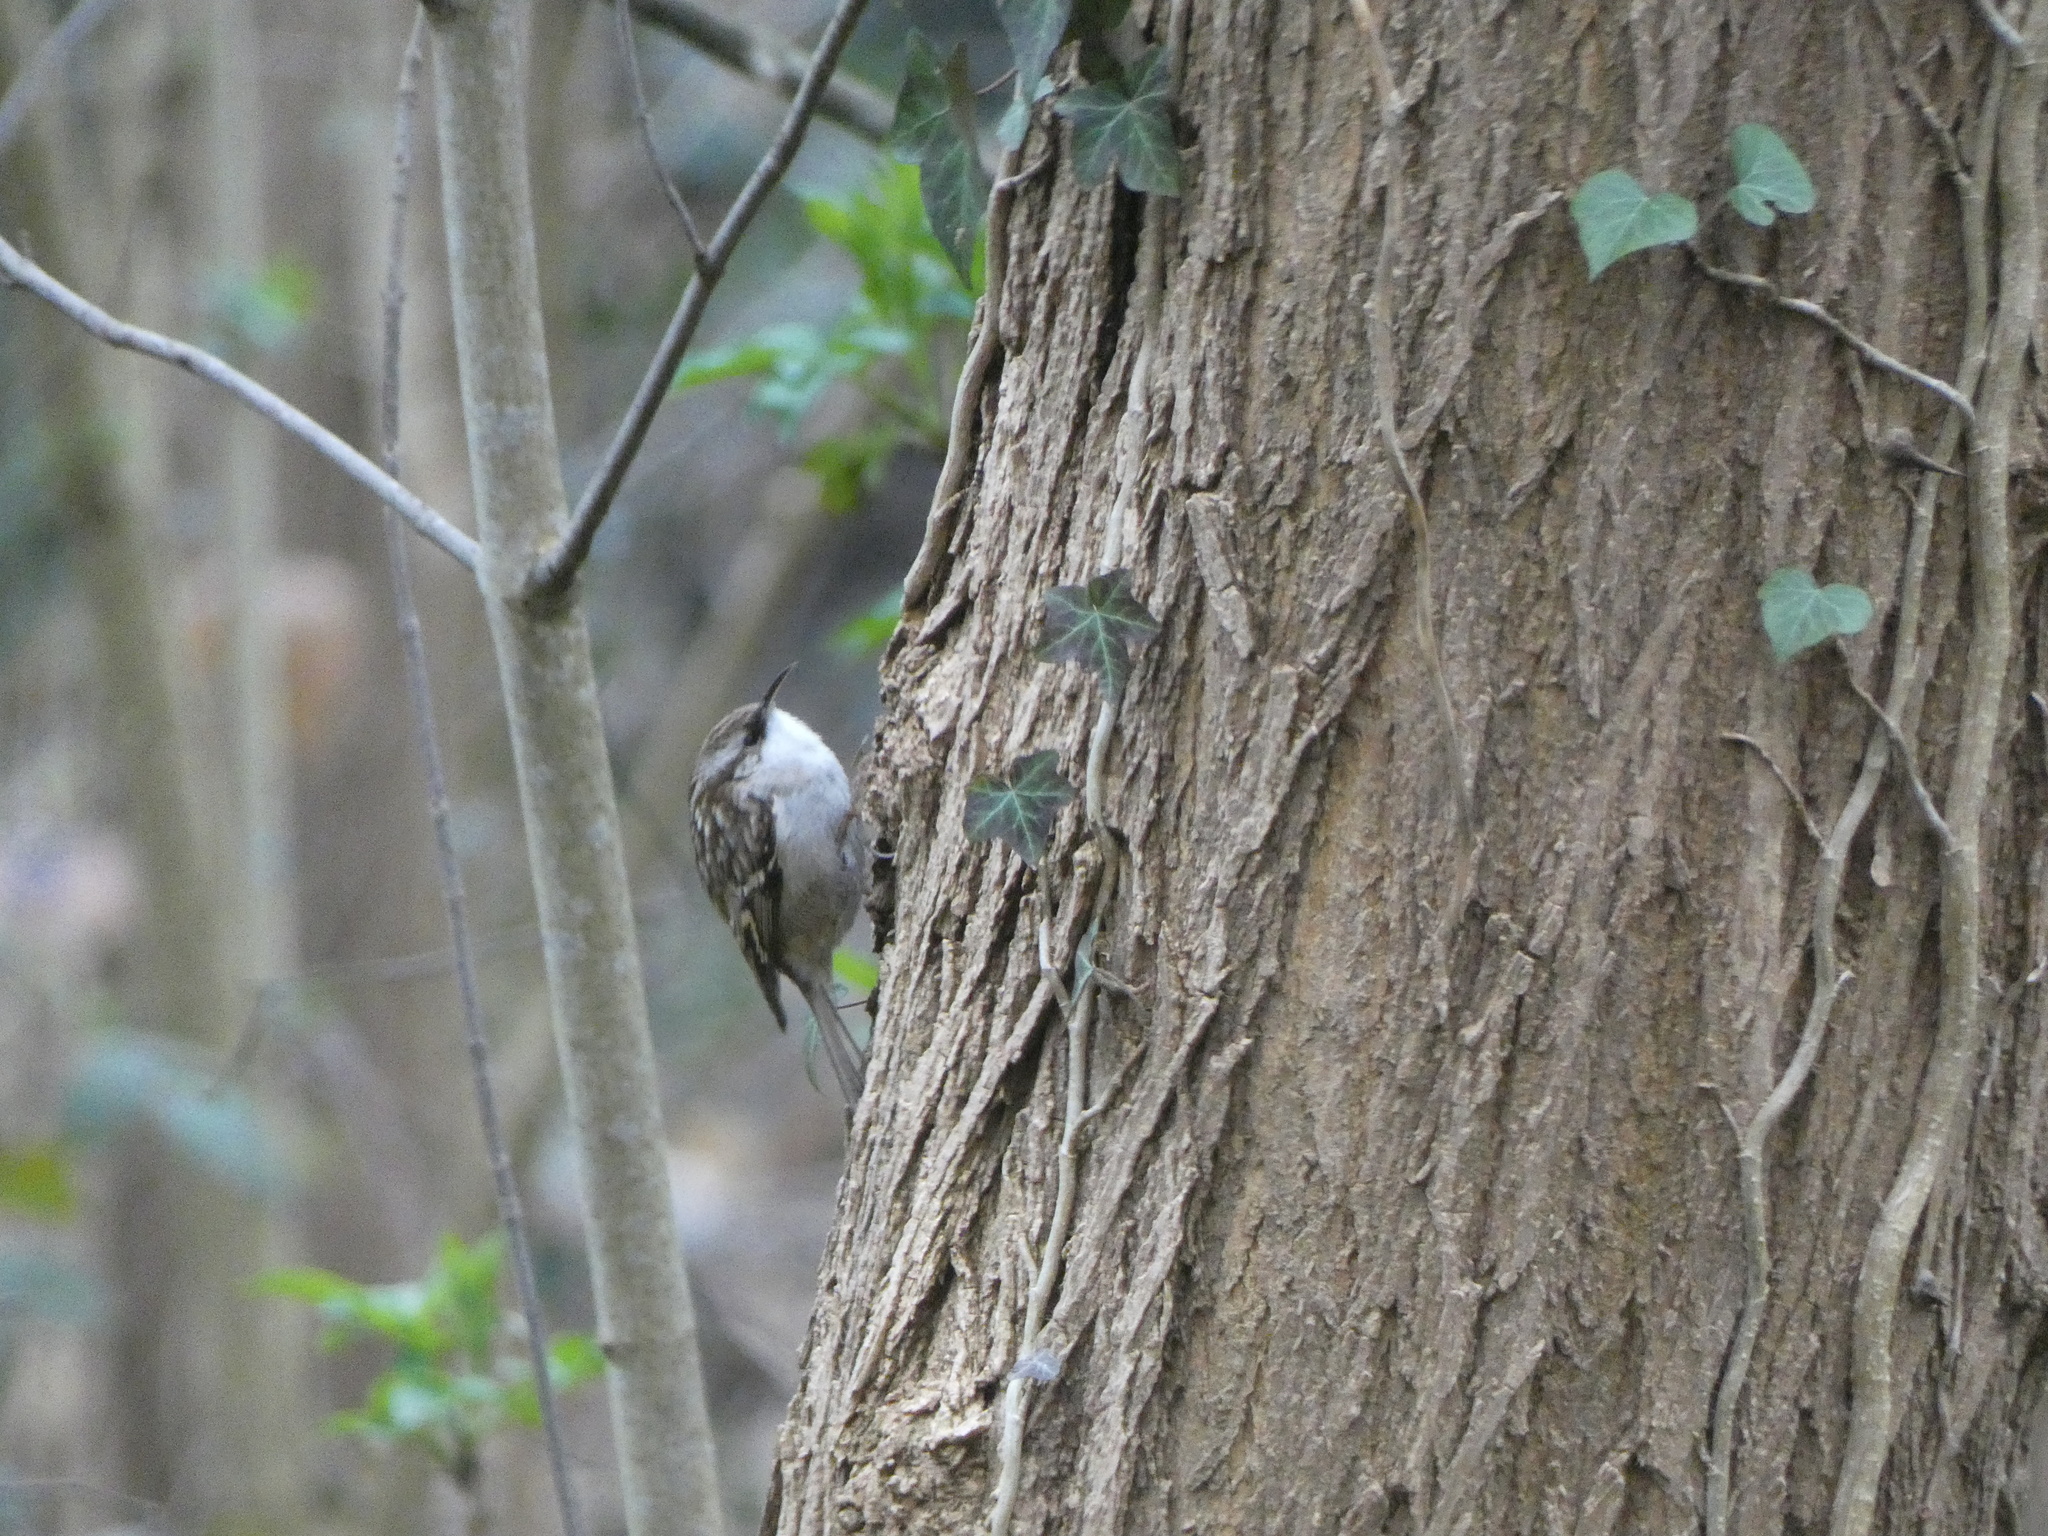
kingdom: Animalia
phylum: Chordata
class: Aves
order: Passeriformes
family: Certhiidae
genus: Certhia
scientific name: Certhia brachydactyla
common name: Short-toed treecreeper
